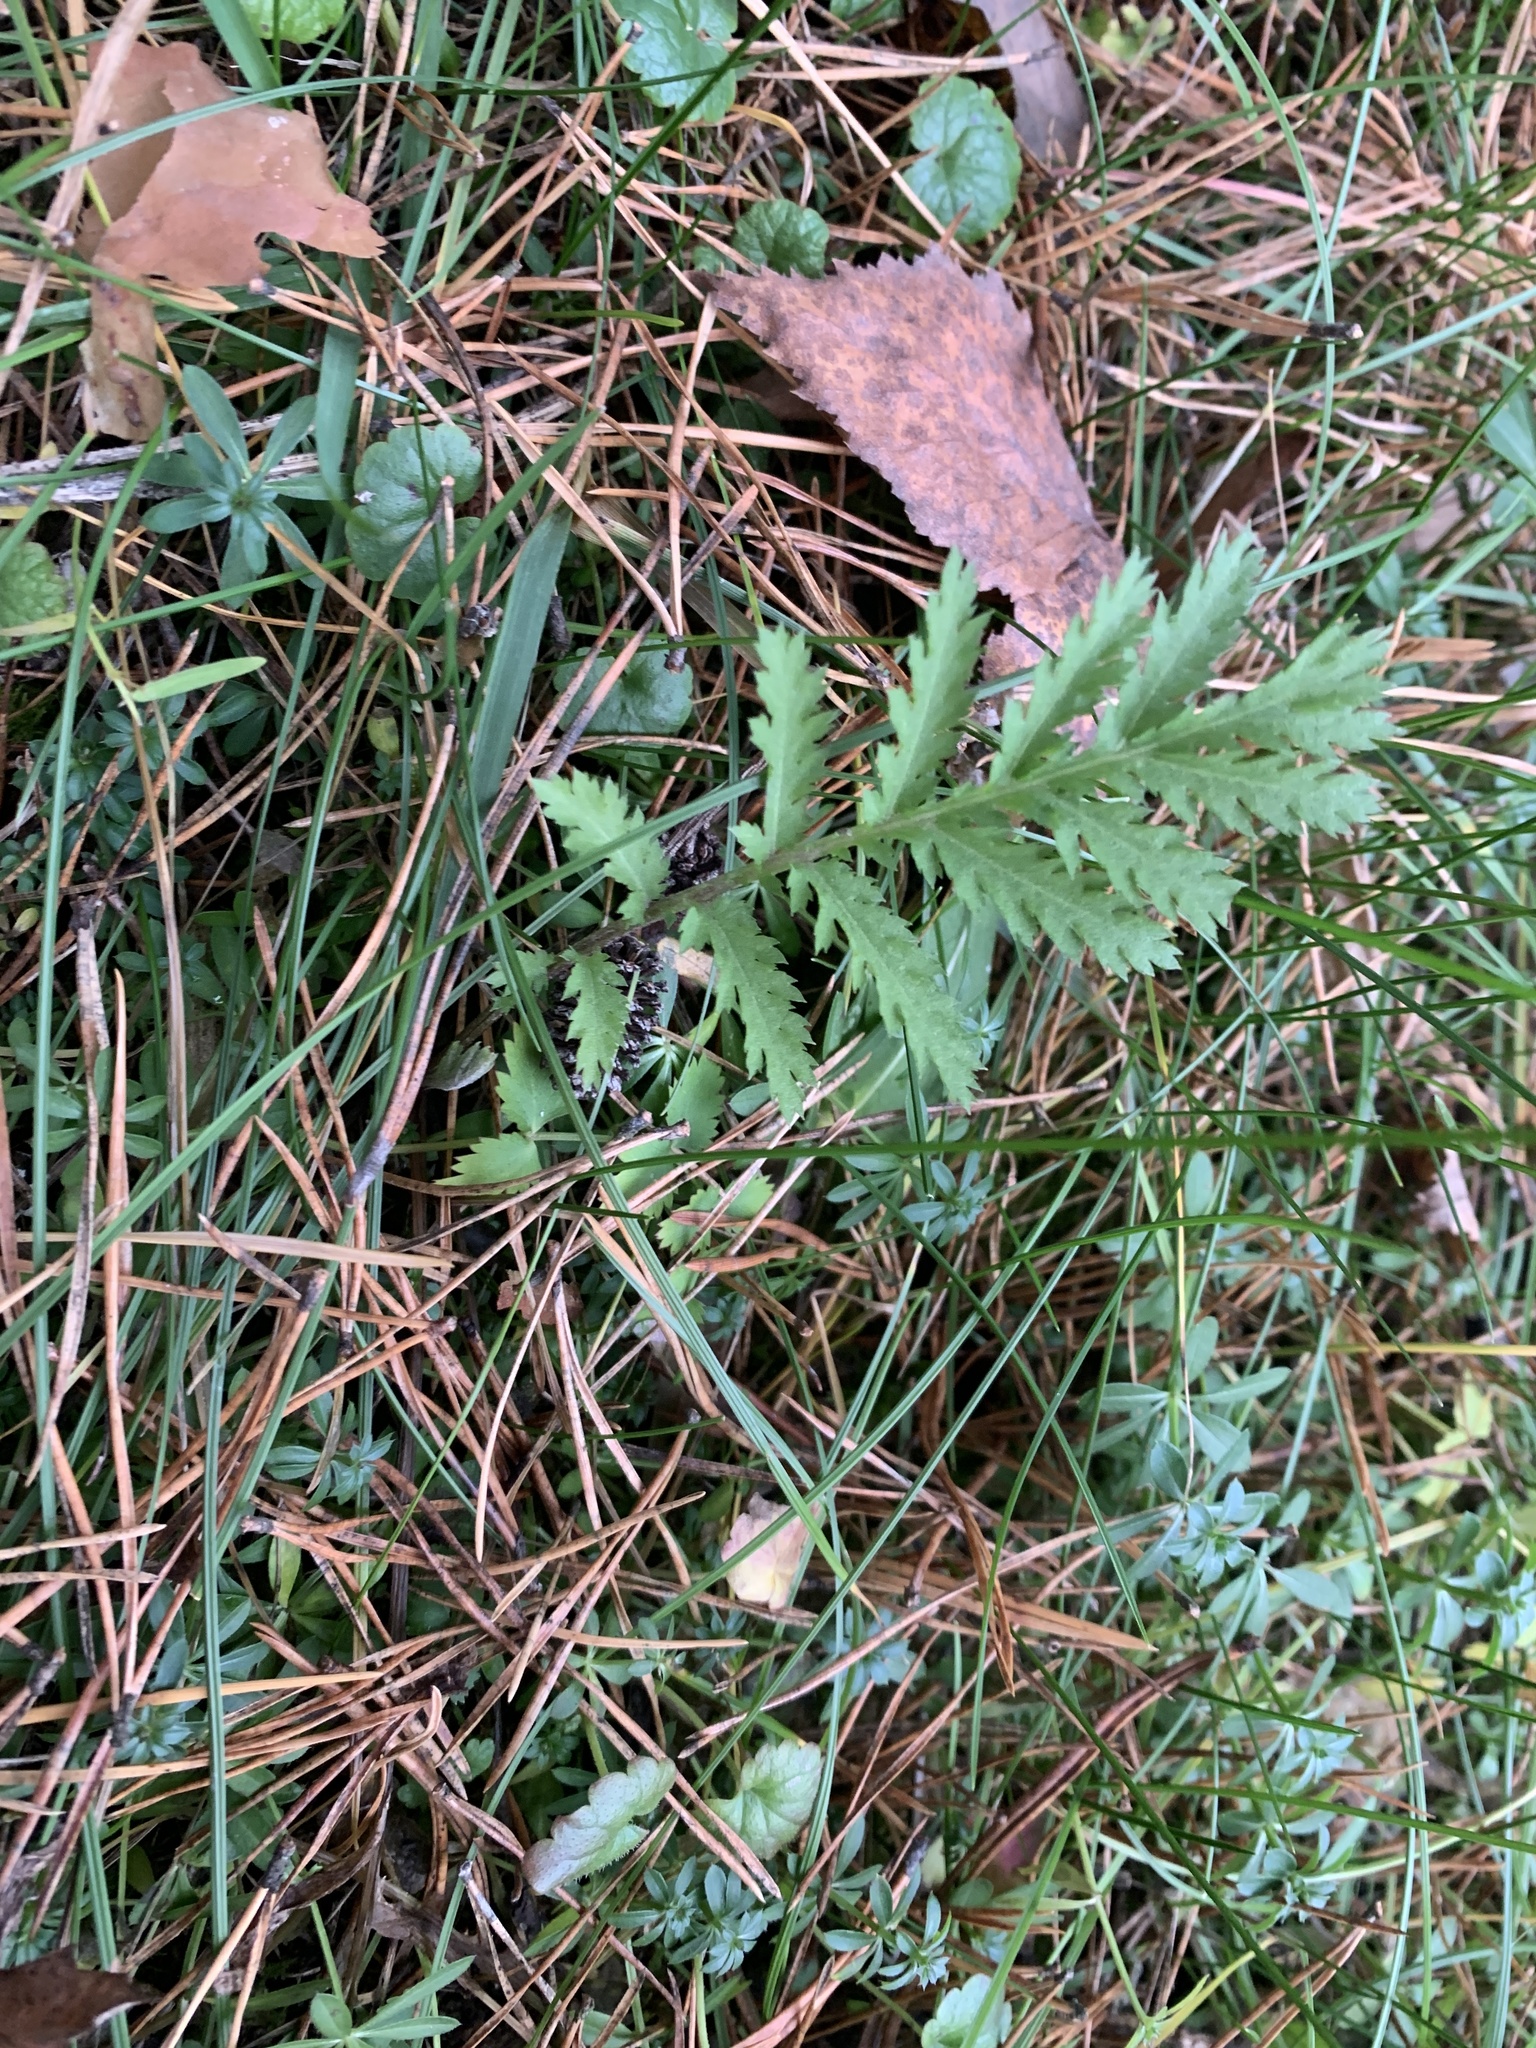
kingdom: Plantae
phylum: Tracheophyta
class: Magnoliopsida
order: Asterales
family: Asteraceae
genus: Tanacetum
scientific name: Tanacetum vulgare
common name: Common tansy
